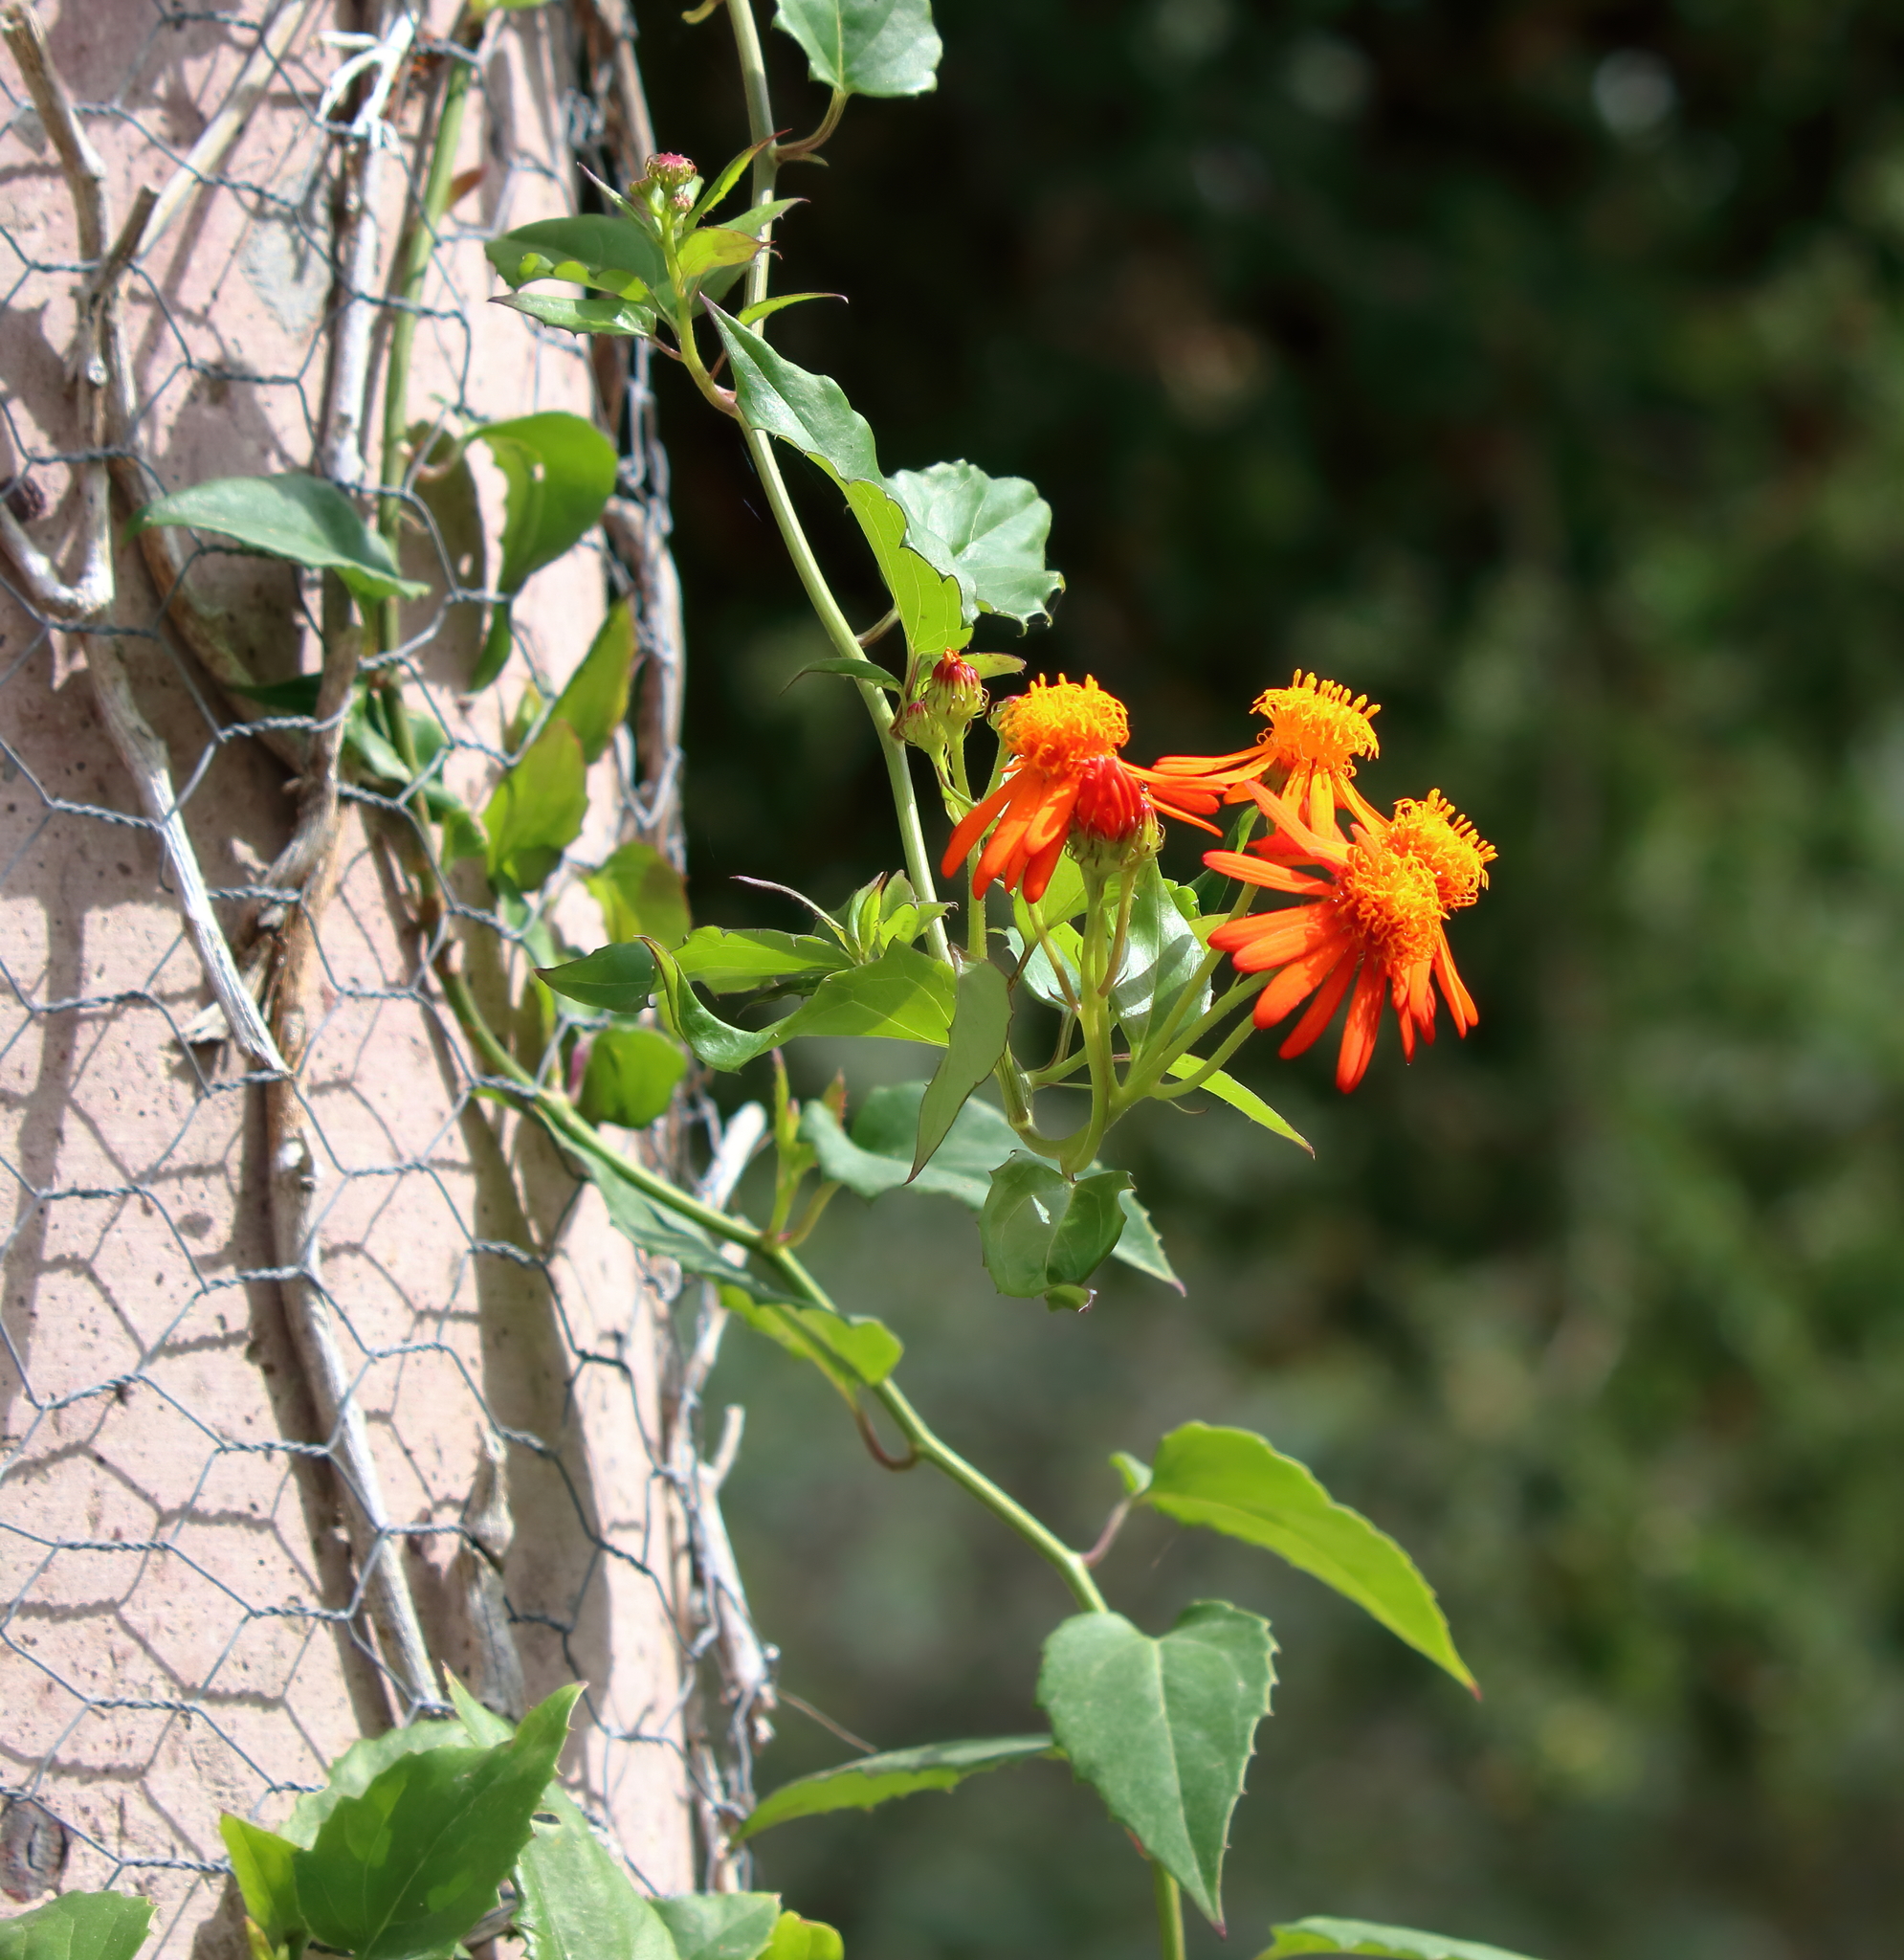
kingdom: Plantae
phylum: Tracheophyta
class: Magnoliopsida
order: Asterales
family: Asteraceae
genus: Pseudogynoxys
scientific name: Pseudogynoxys chenopodioides
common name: Mexican flamevine
